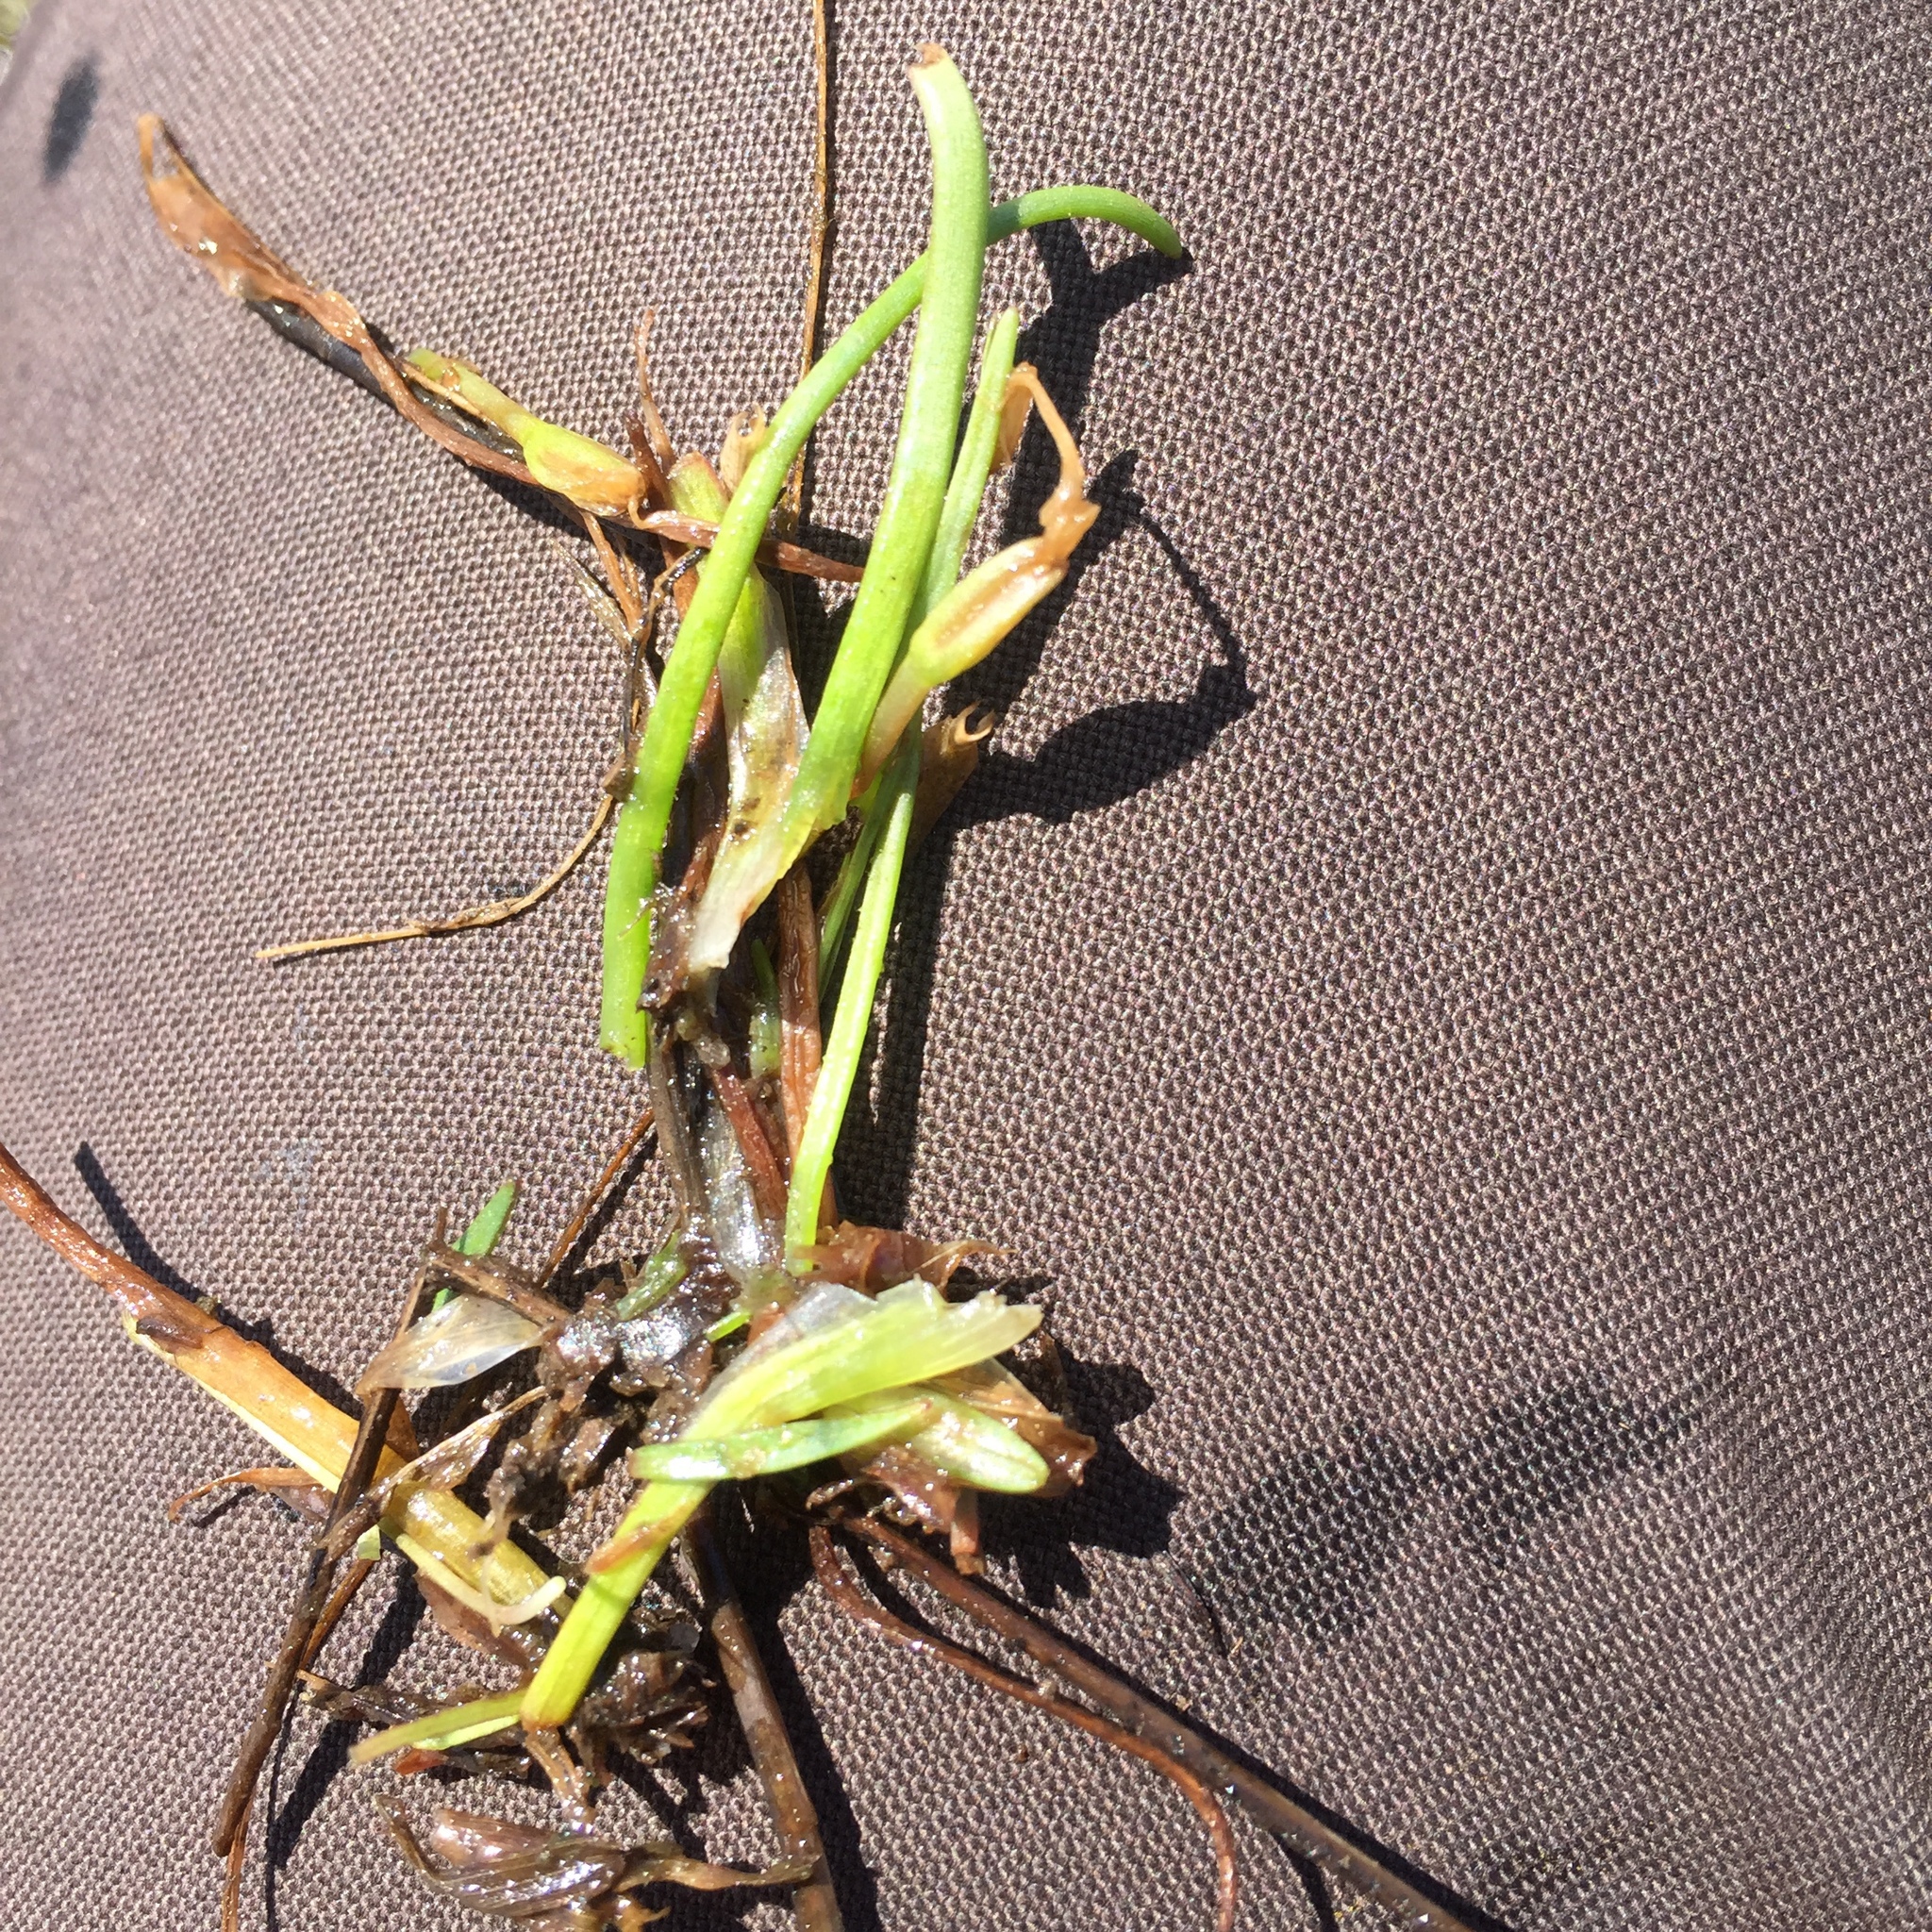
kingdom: Plantae
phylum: Tracheophyta
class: Magnoliopsida
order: Lamiales
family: Plantaginaceae
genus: Littorella
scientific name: Littorella uniflora
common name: Shoreweed
